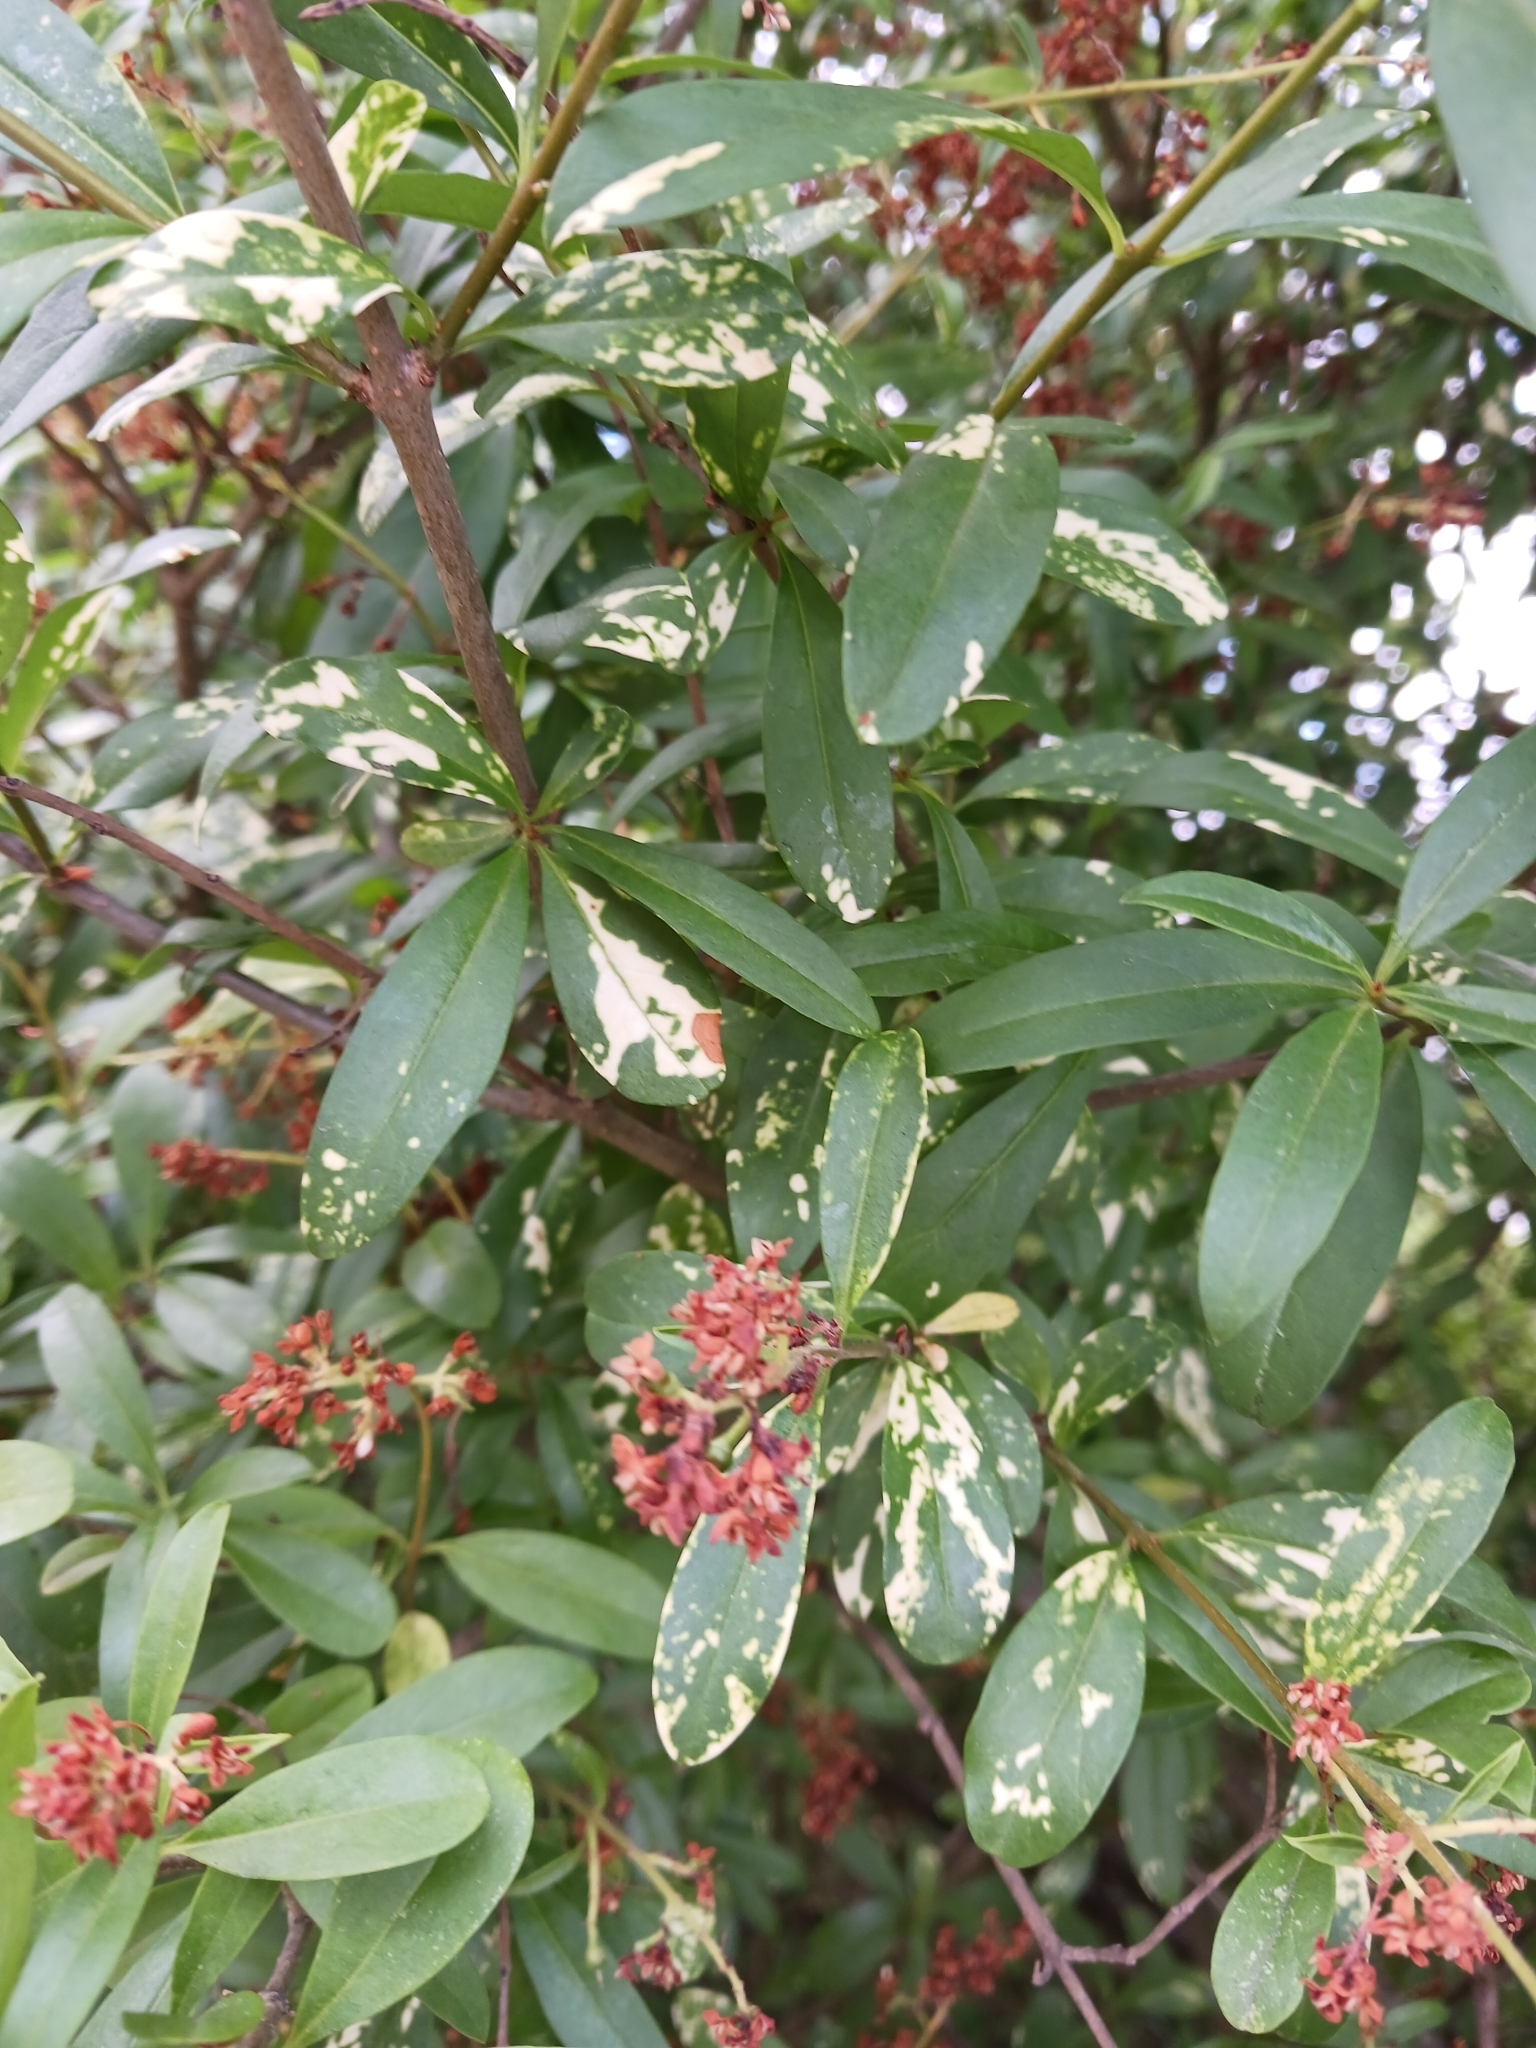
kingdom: Viruses
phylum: Kitrinoviricota
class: Alsuviricetes
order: Martellivirales
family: Mayoviridae
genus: Idaeovirus
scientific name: Idaeovirus ligustri
